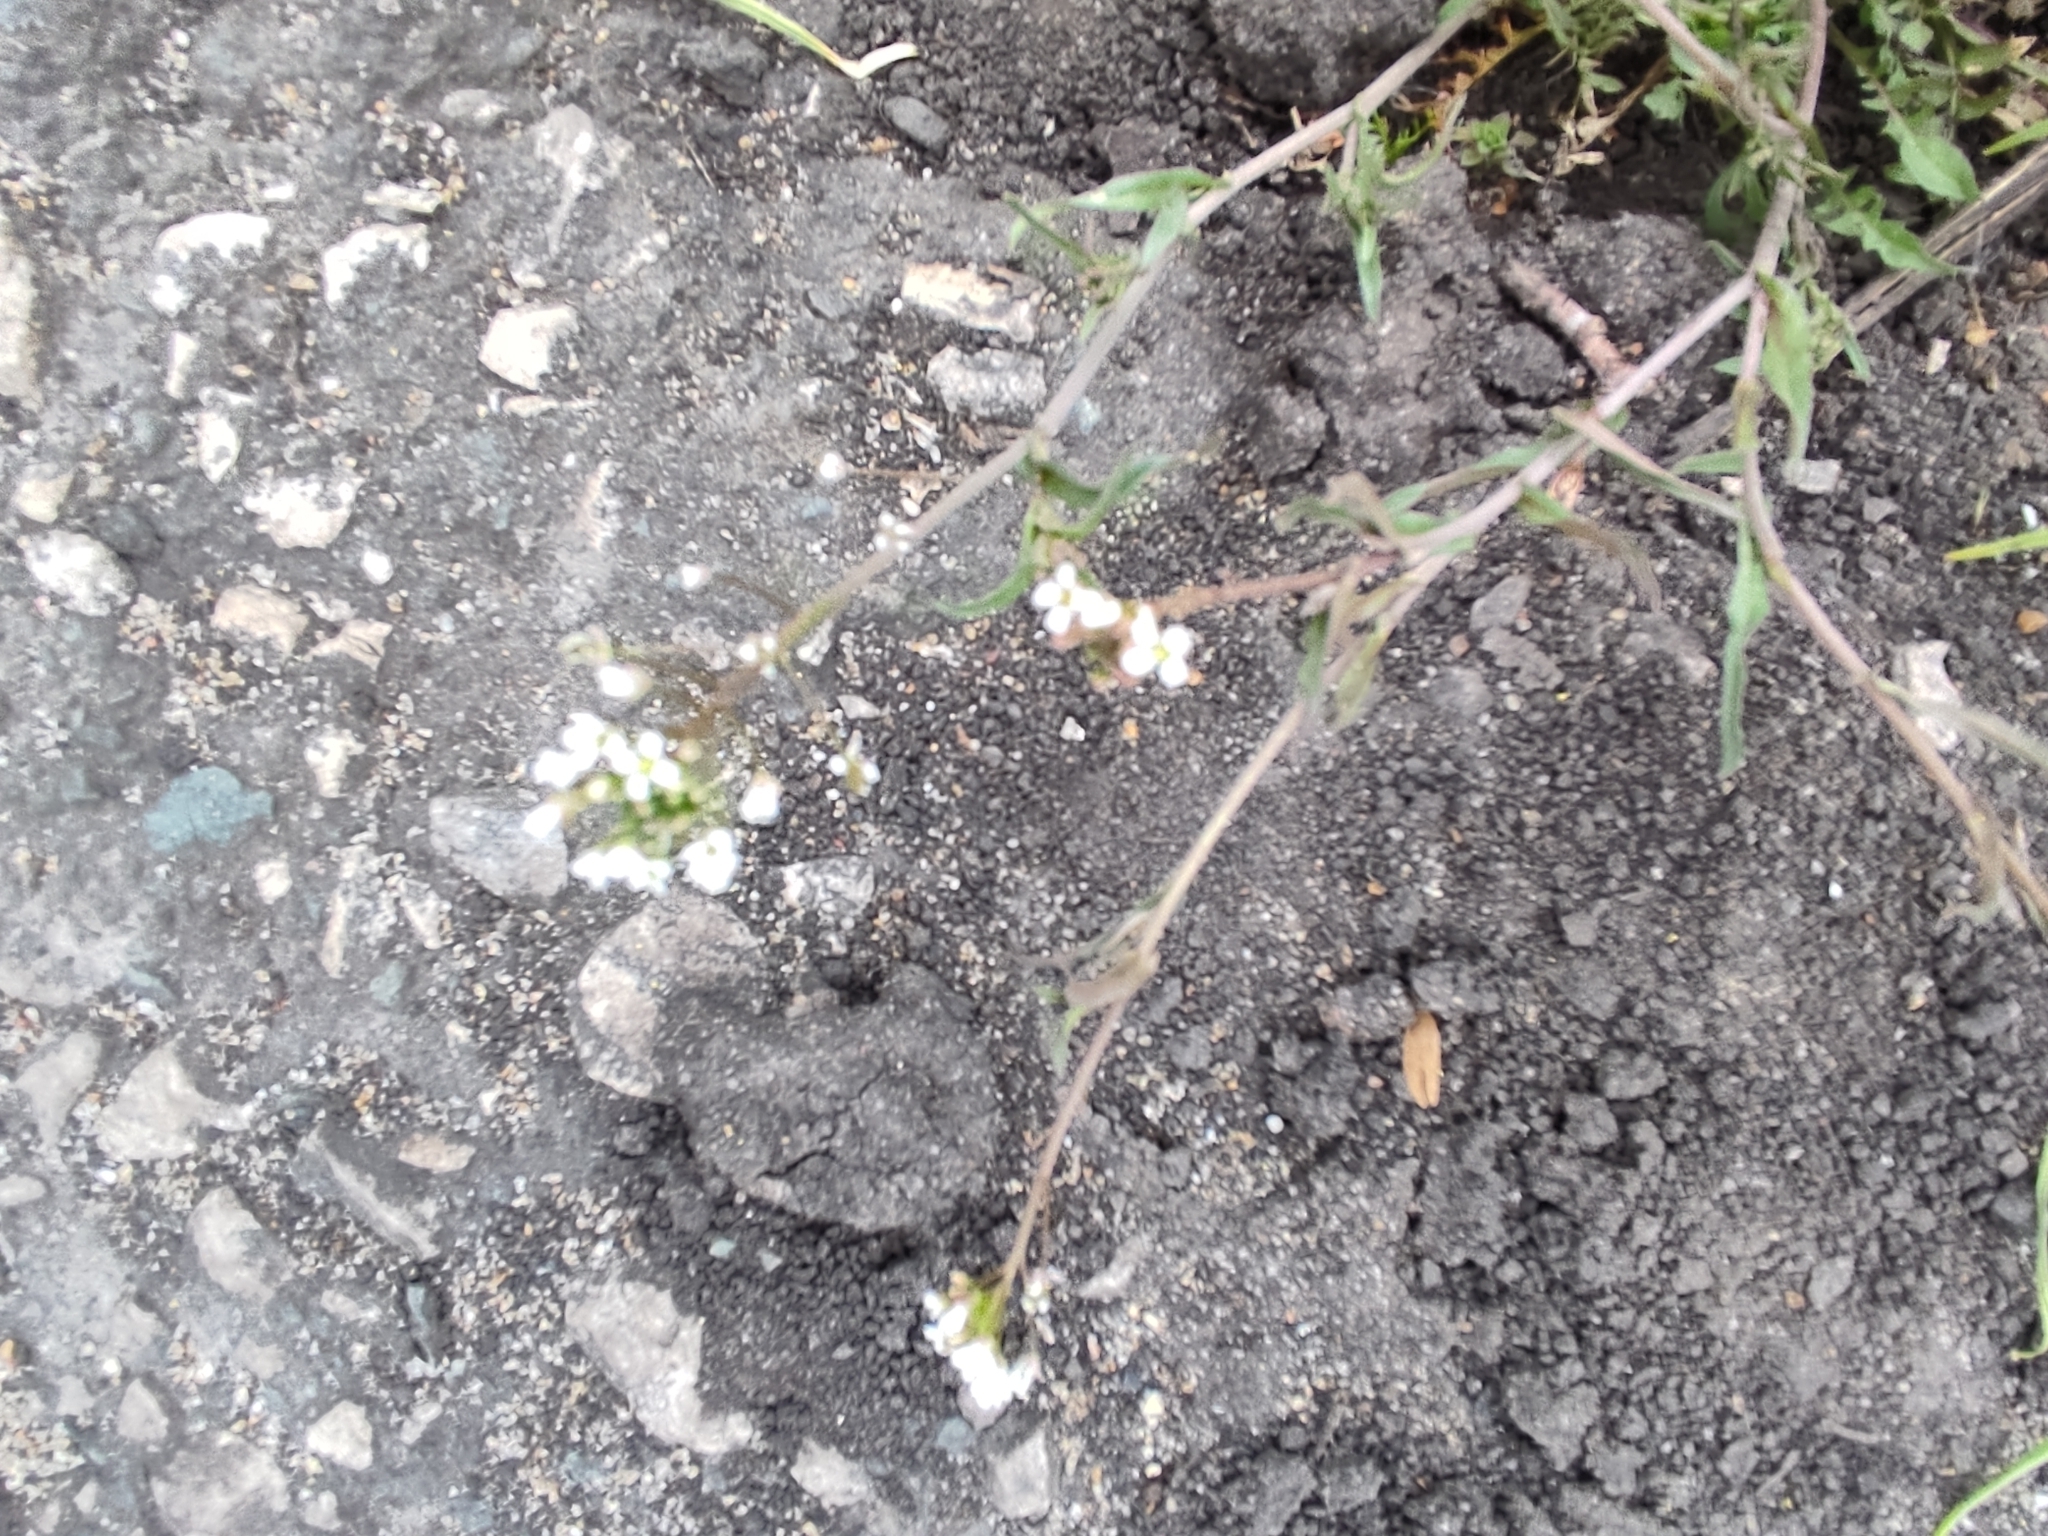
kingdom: Plantae
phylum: Tracheophyta
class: Magnoliopsida
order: Brassicales
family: Brassicaceae
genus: Capsella
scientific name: Capsella bursa-pastoris
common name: Shepherd's purse
